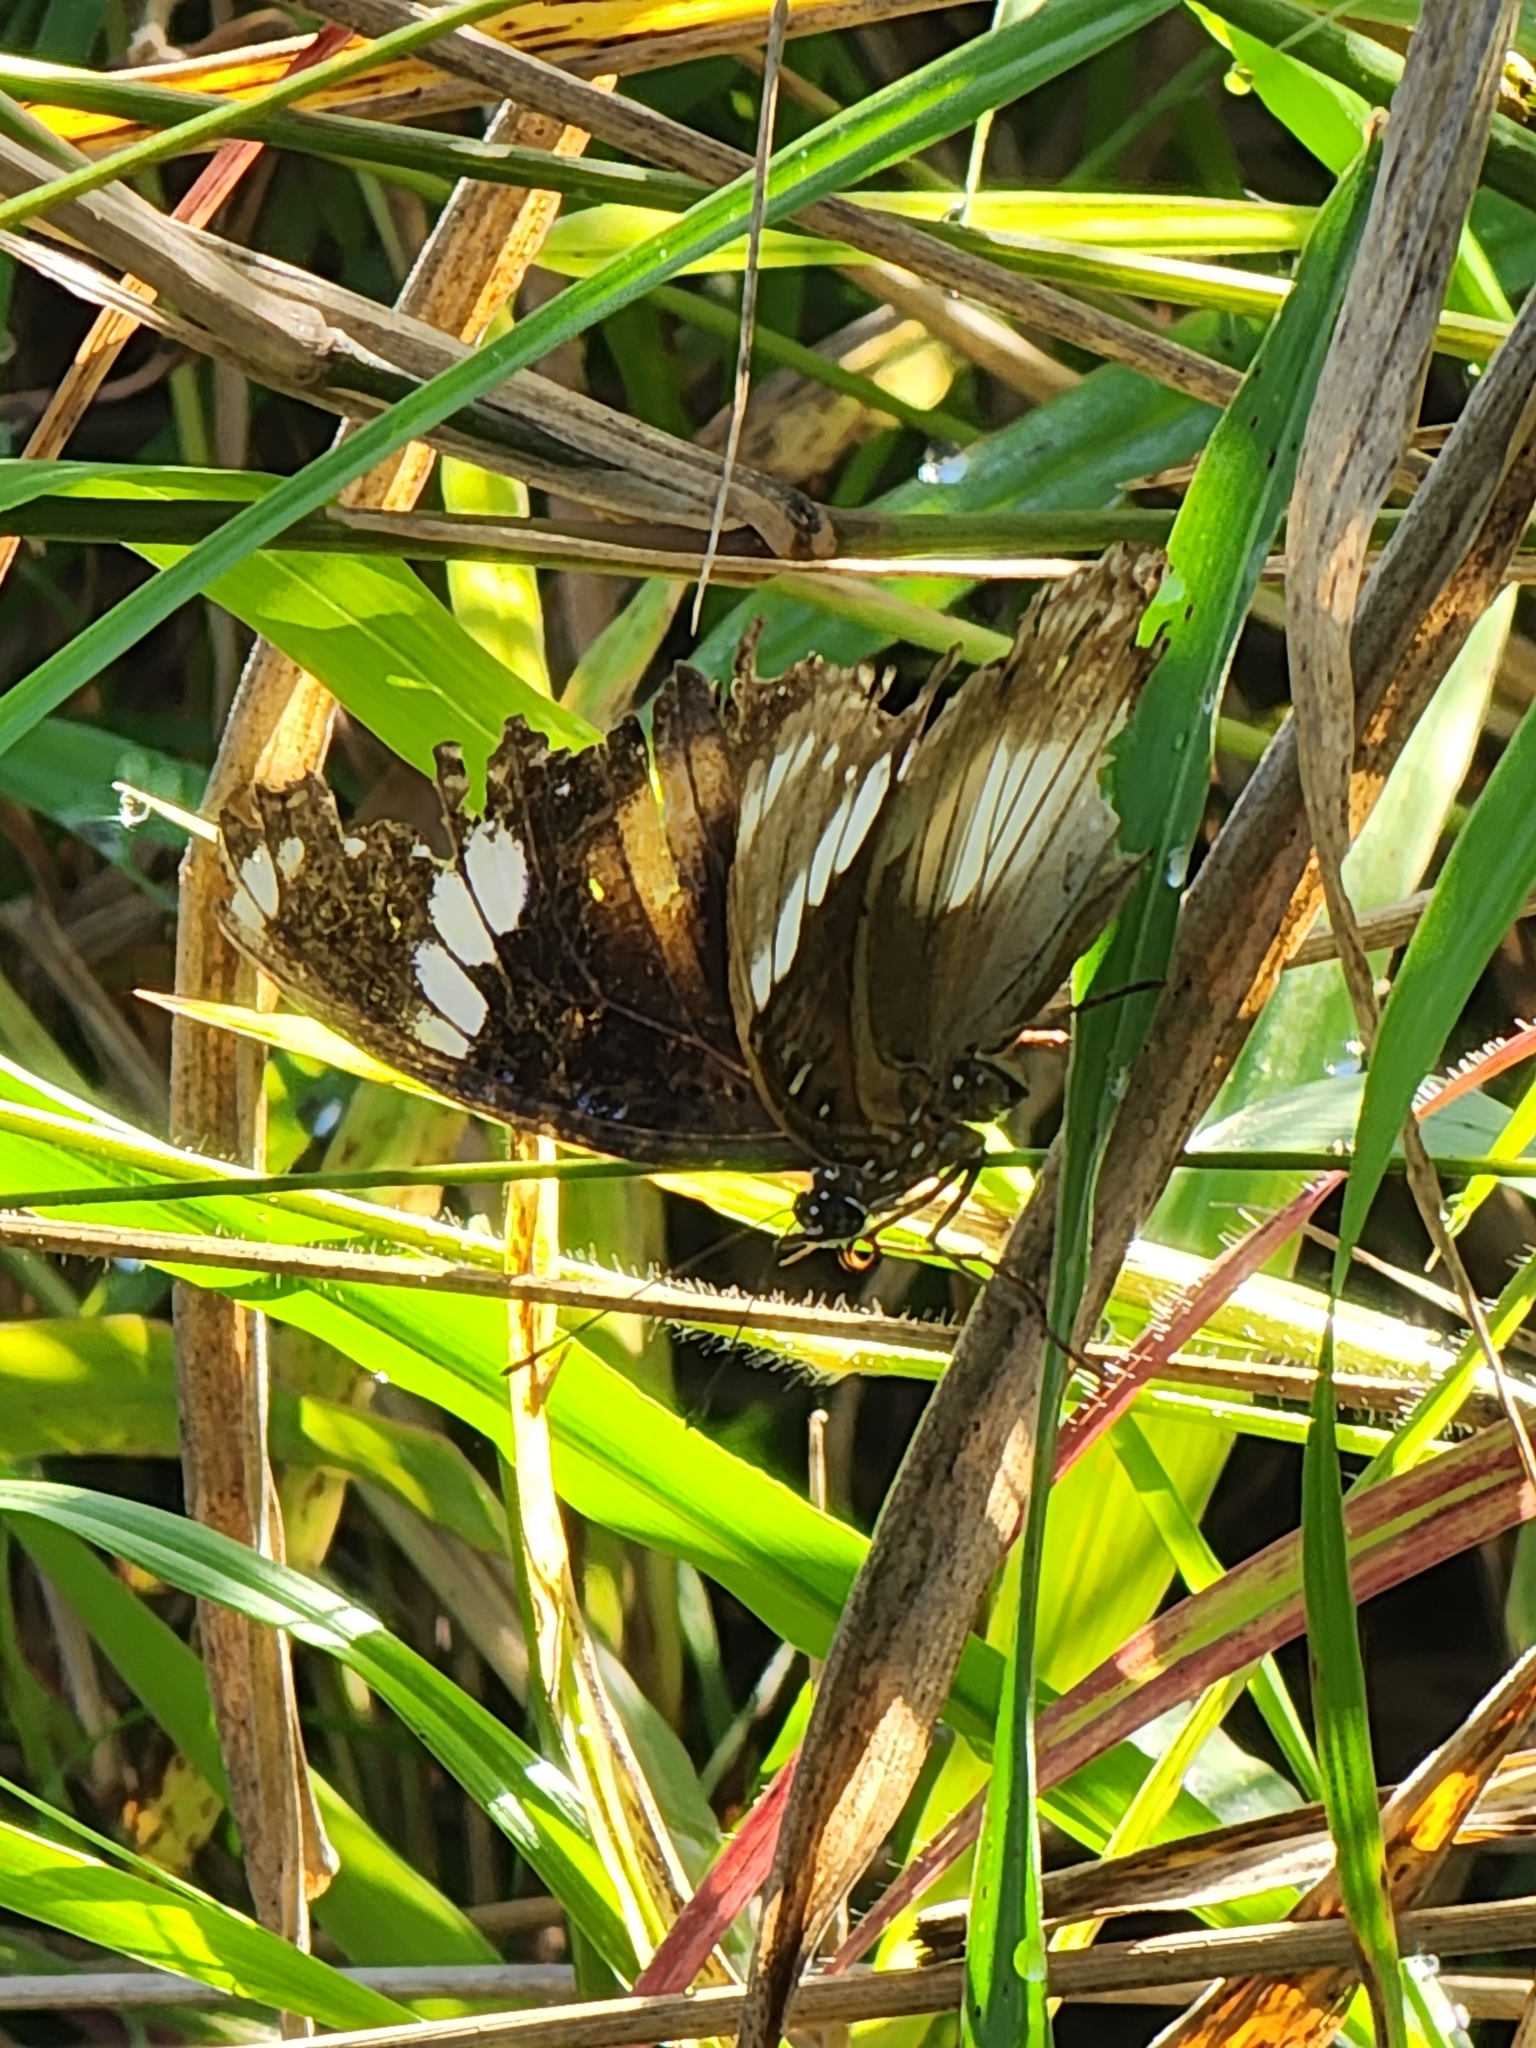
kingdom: Animalia
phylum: Arthropoda
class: Insecta
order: Lepidoptera
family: Nymphalidae
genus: Hypolimnas
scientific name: Hypolimnas bolina
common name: Great eggfly
